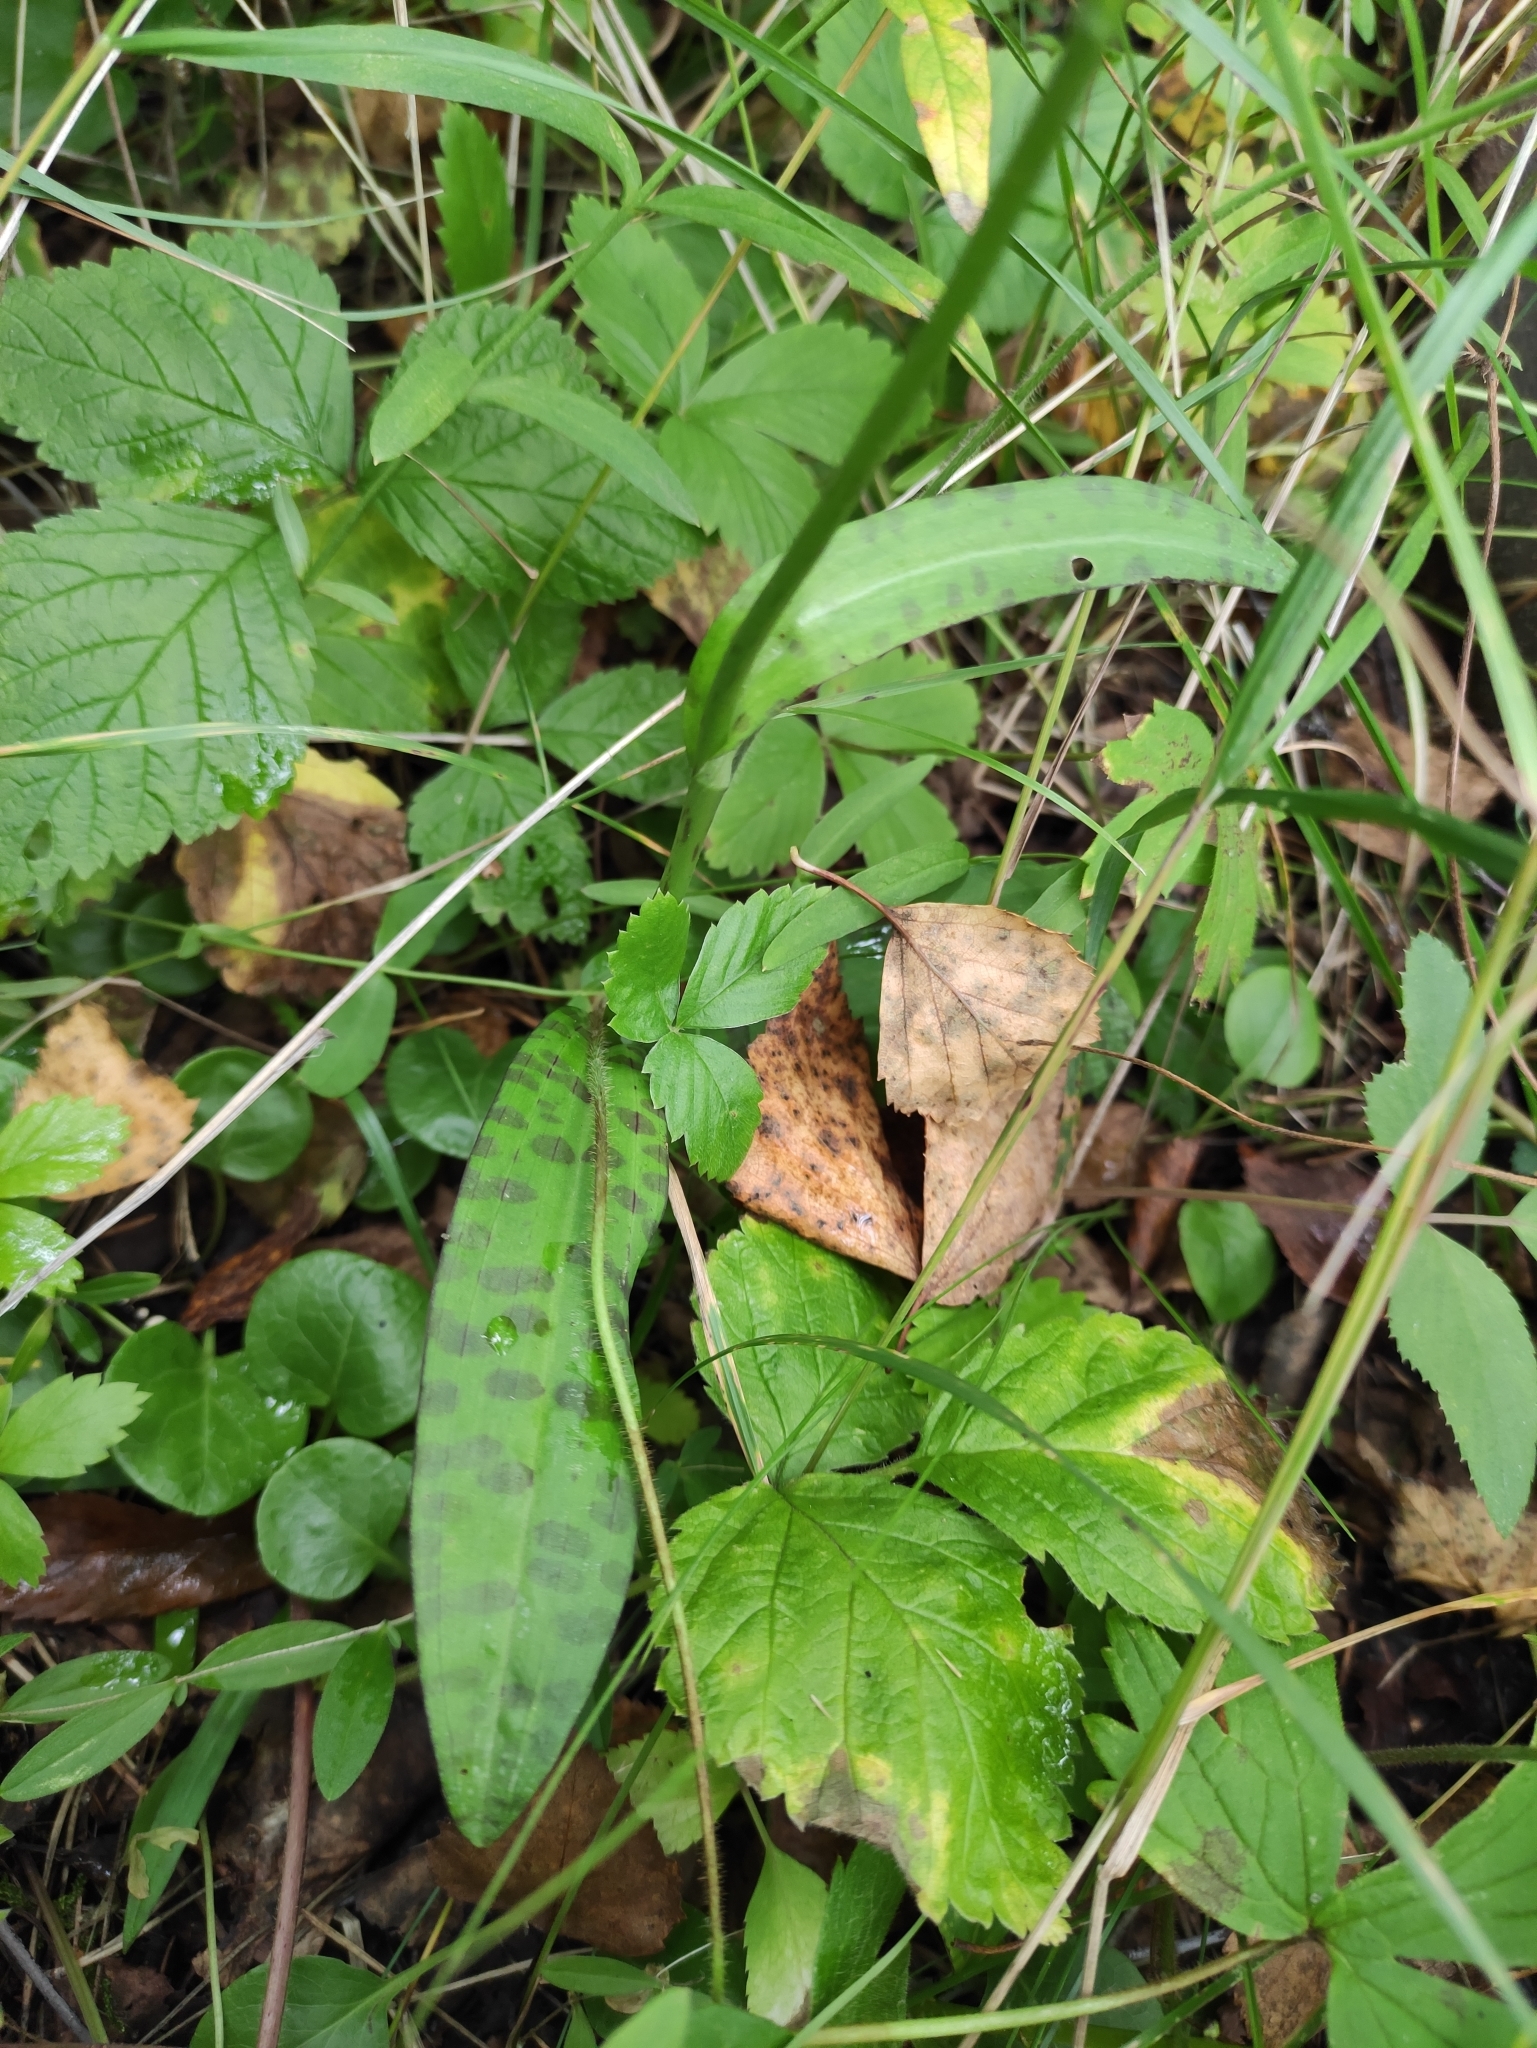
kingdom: Plantae
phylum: Tracheophyta
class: Liliopsida
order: Asparagales
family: Orchidaceae
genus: Dactylorhiza
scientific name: Dactylorhiza maculata
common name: Heath spotted-orchid
